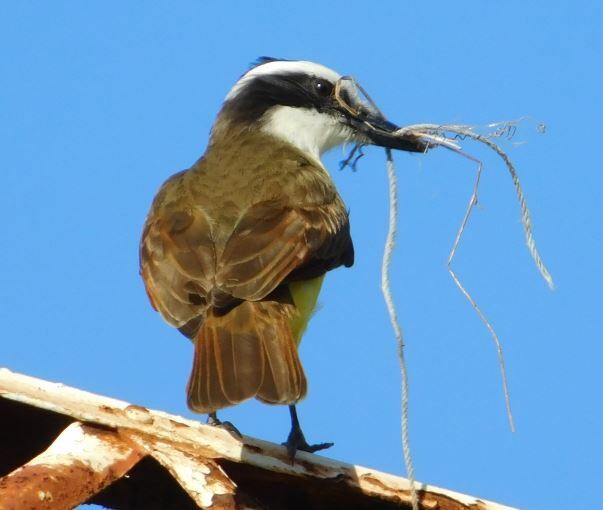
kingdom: Animalia
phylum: Chordata
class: Aves
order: Passeriformes
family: Tyrannidae
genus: Pitangus
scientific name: Pitangus sulphuratus
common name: Great kiskadee
